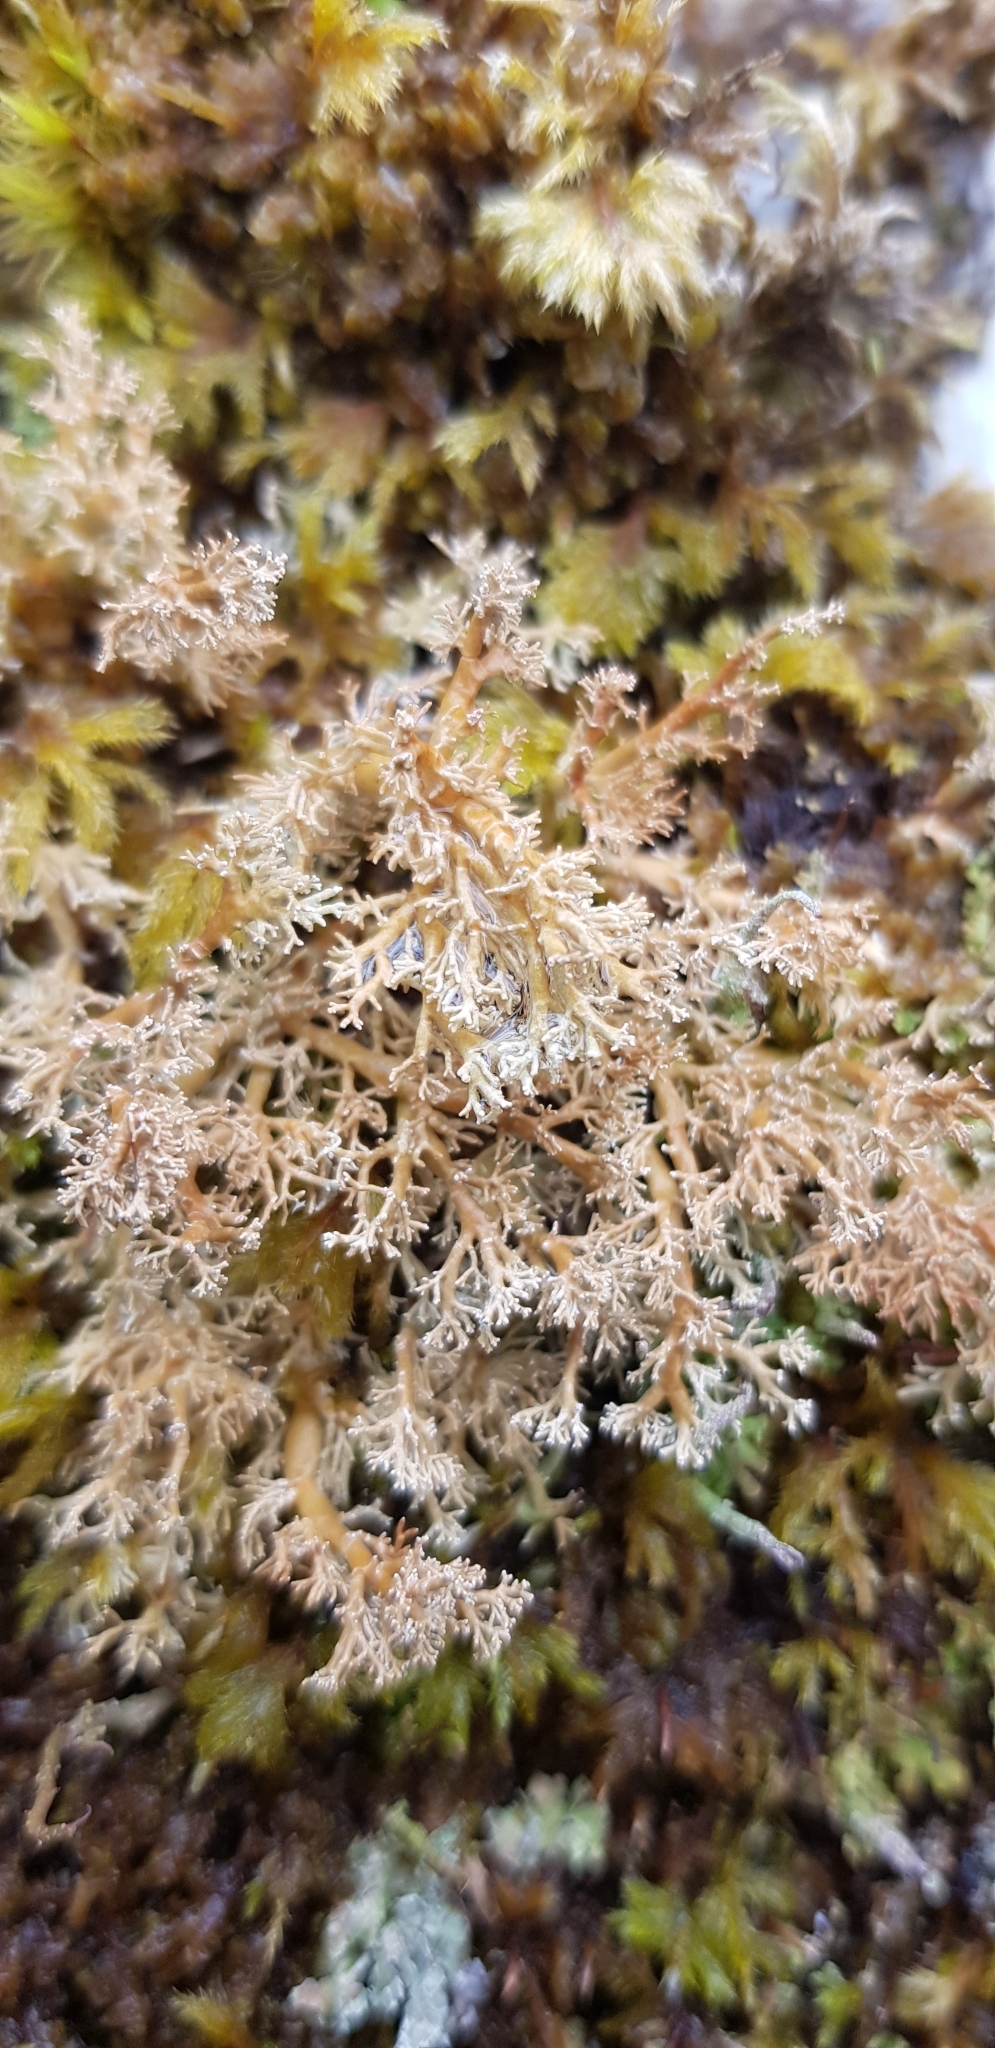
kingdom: Fungi
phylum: Ascomycota
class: Lecanoromycetes
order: Lecanorales
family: Sphaerophoraceae
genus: Sphaerophorus
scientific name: Sphaerophorus globosus
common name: Globe ball lichen
